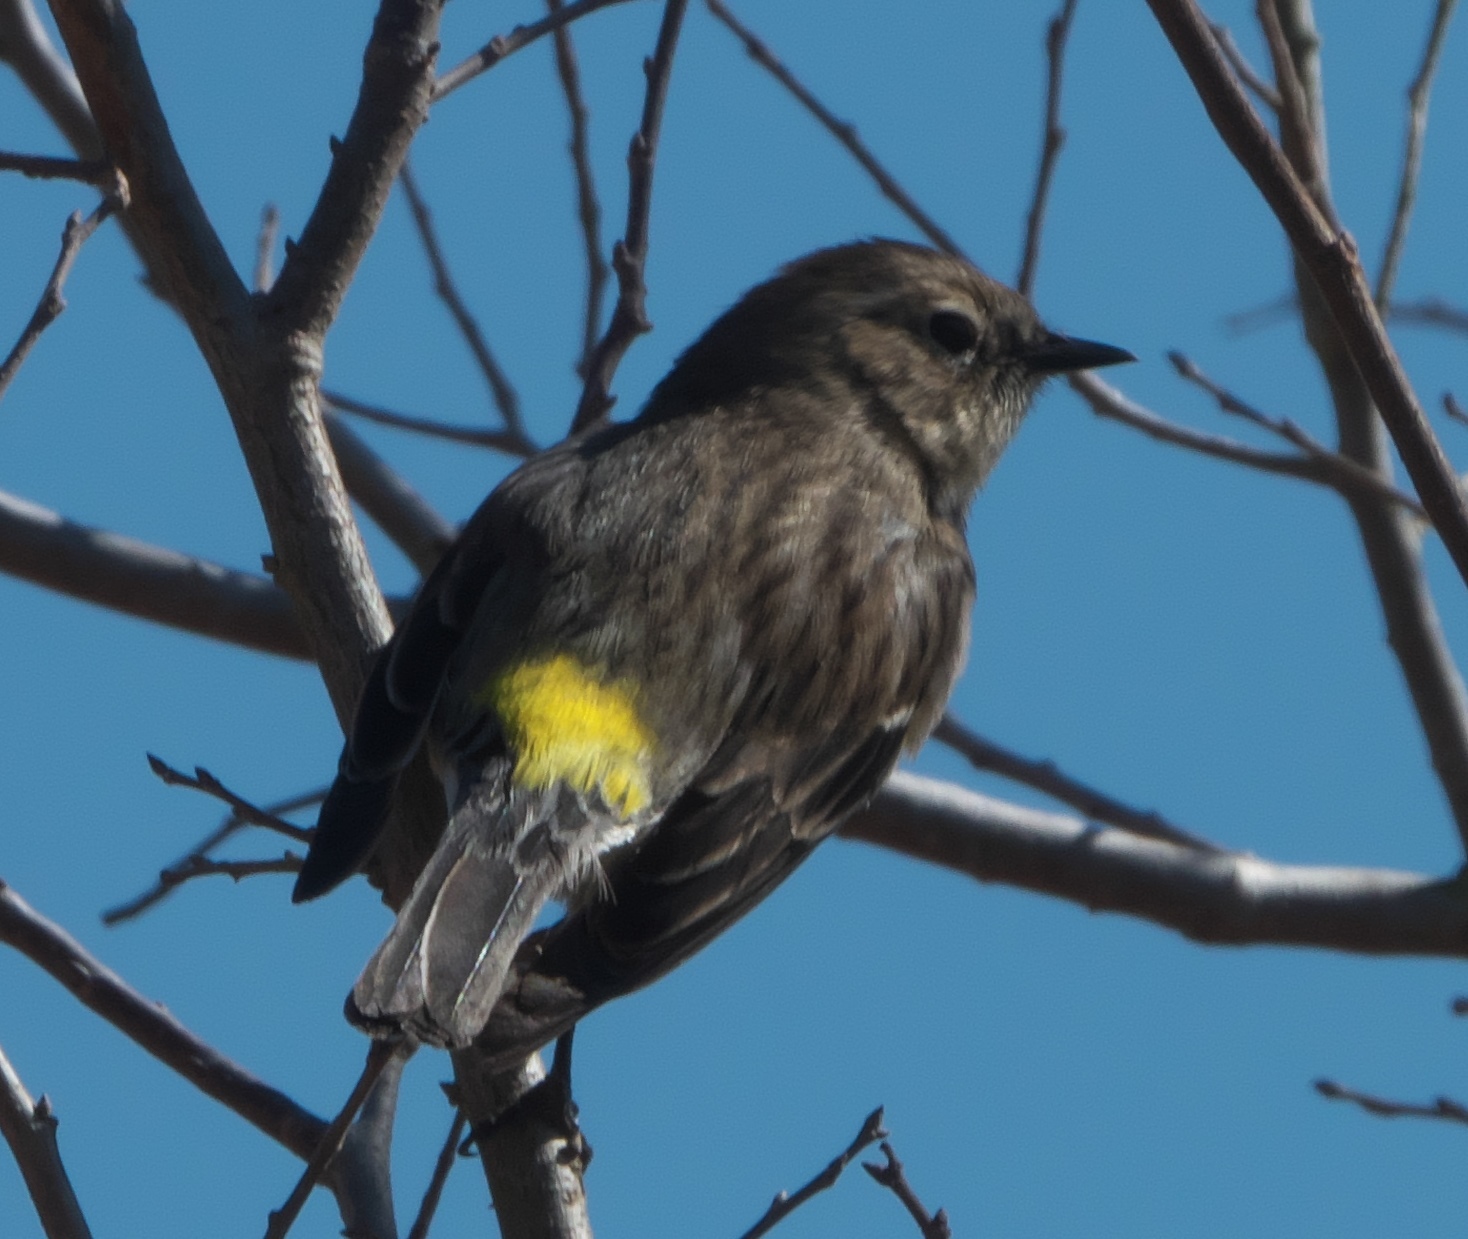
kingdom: Animalia
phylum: Chordata
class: Aves
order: Passeriformes
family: Parulidae
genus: Setophaga
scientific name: Setophaga coronata
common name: Myrtle warbler
